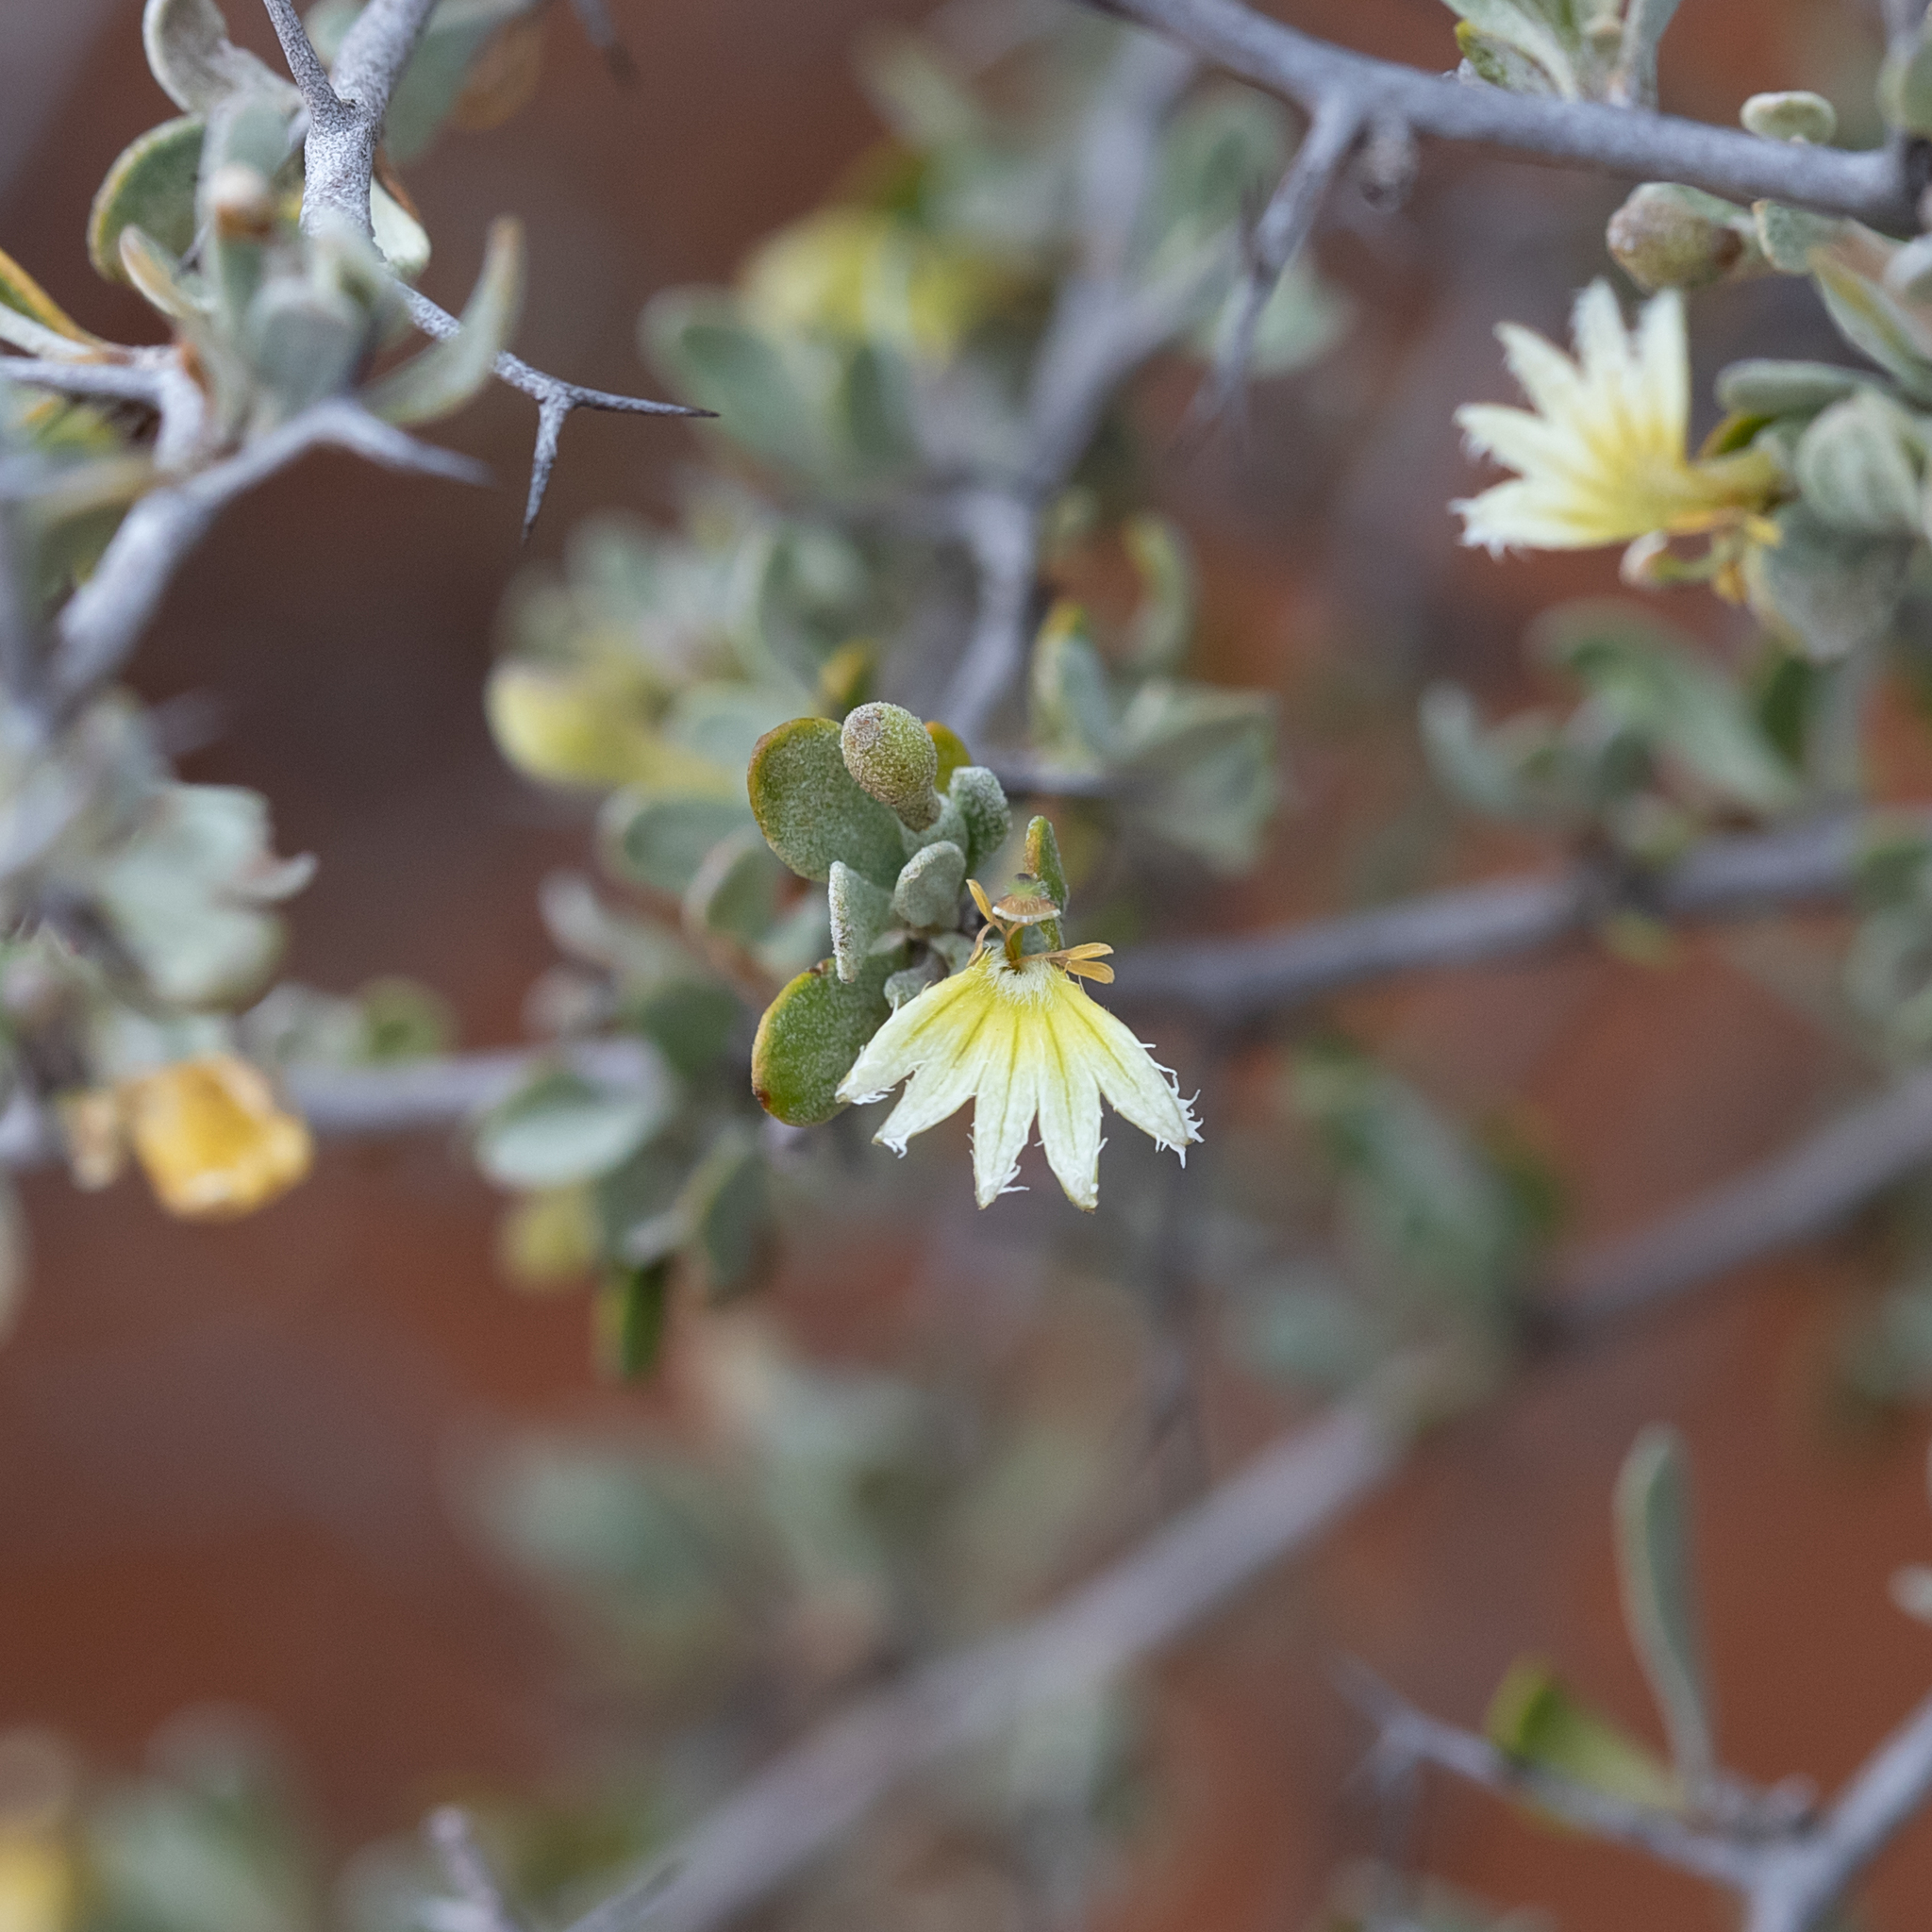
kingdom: Plantae
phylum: Tracheophyta
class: Magnoliopsida
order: Asterales
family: Goodeniaceae
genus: Scaevola
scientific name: Scaevola spinescens
